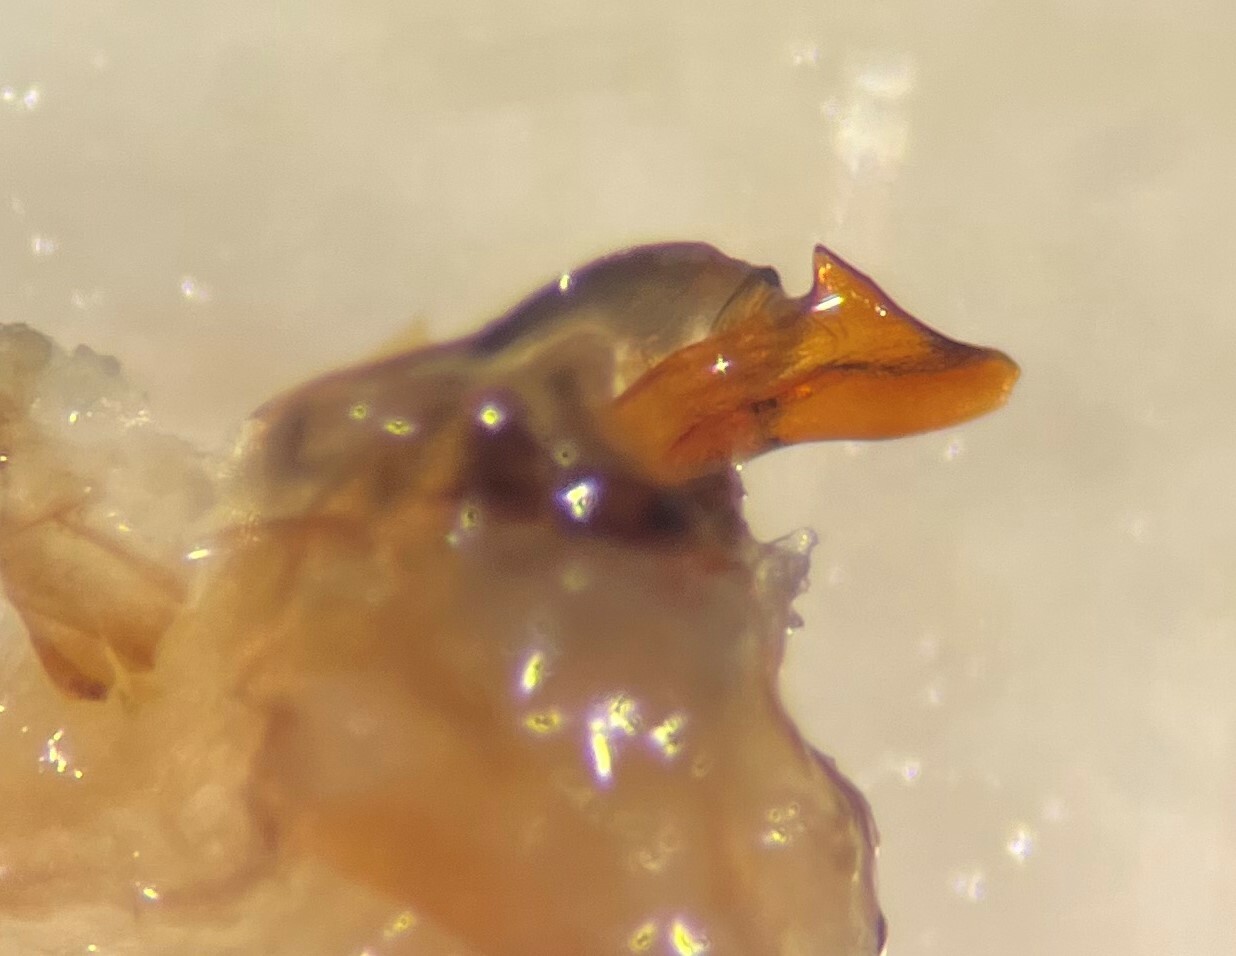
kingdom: Animalia
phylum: Arthropoda
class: Insecta
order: Coleoptera
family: Haliplidae
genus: Peltodytes
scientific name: Peltodytes oppositus
